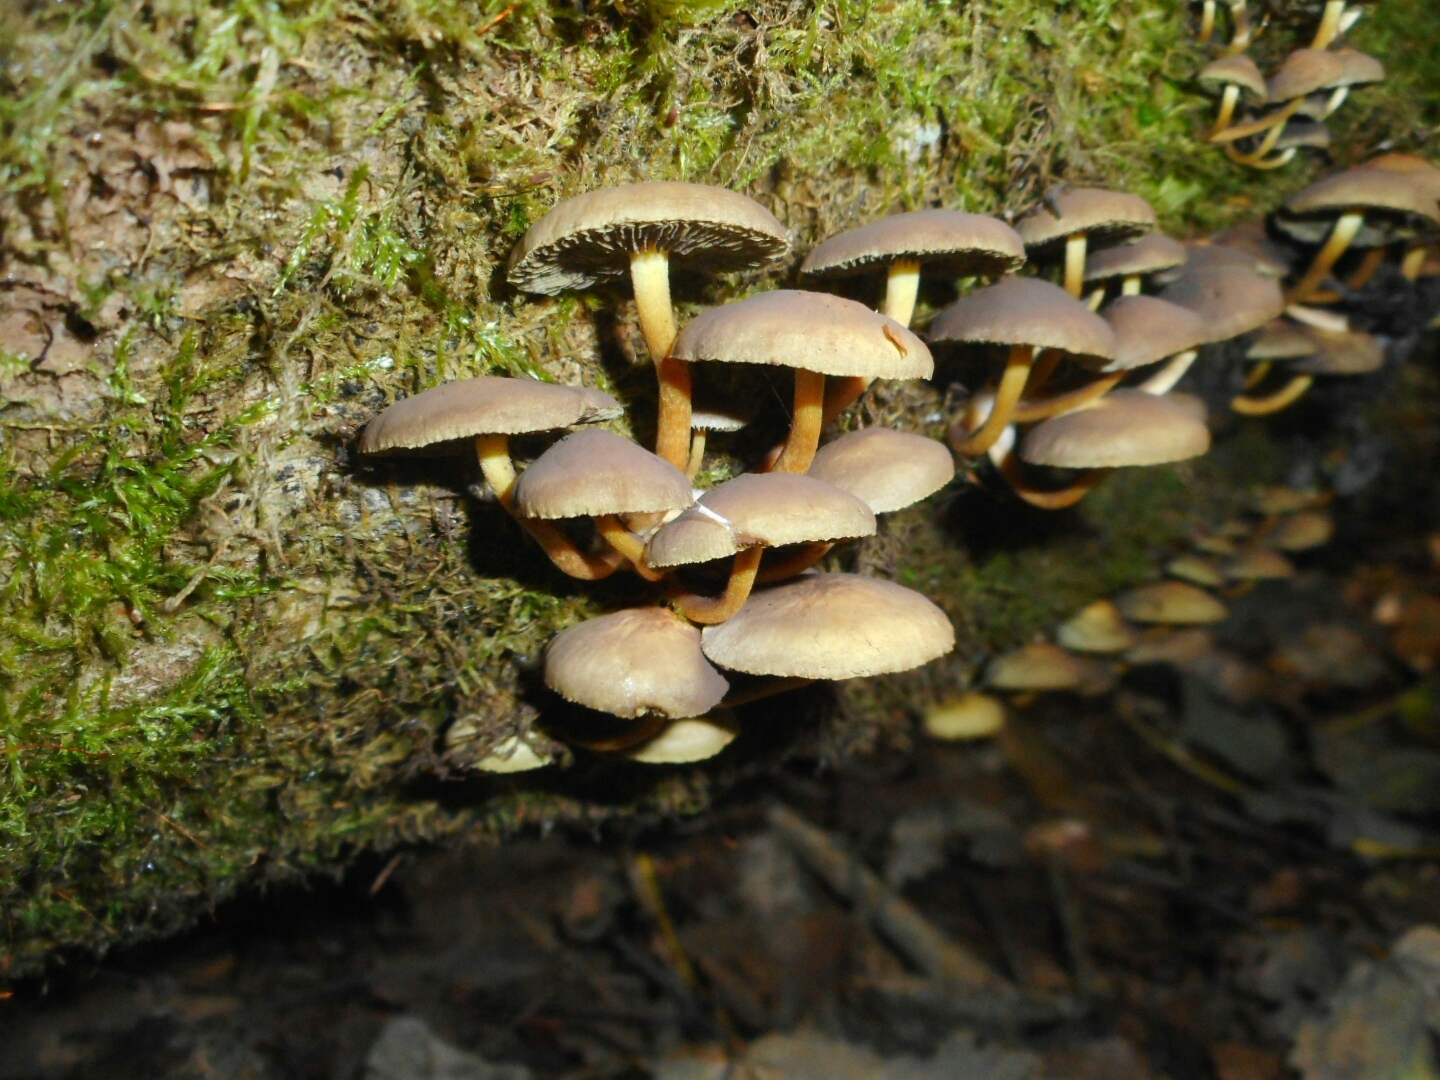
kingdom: Fungi
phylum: Basidiomycota
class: Agaricomycetes
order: Agaricales
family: Strophariaceae
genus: Hypholoma
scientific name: Hypholoma fasciculare
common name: Sulphur tuft
